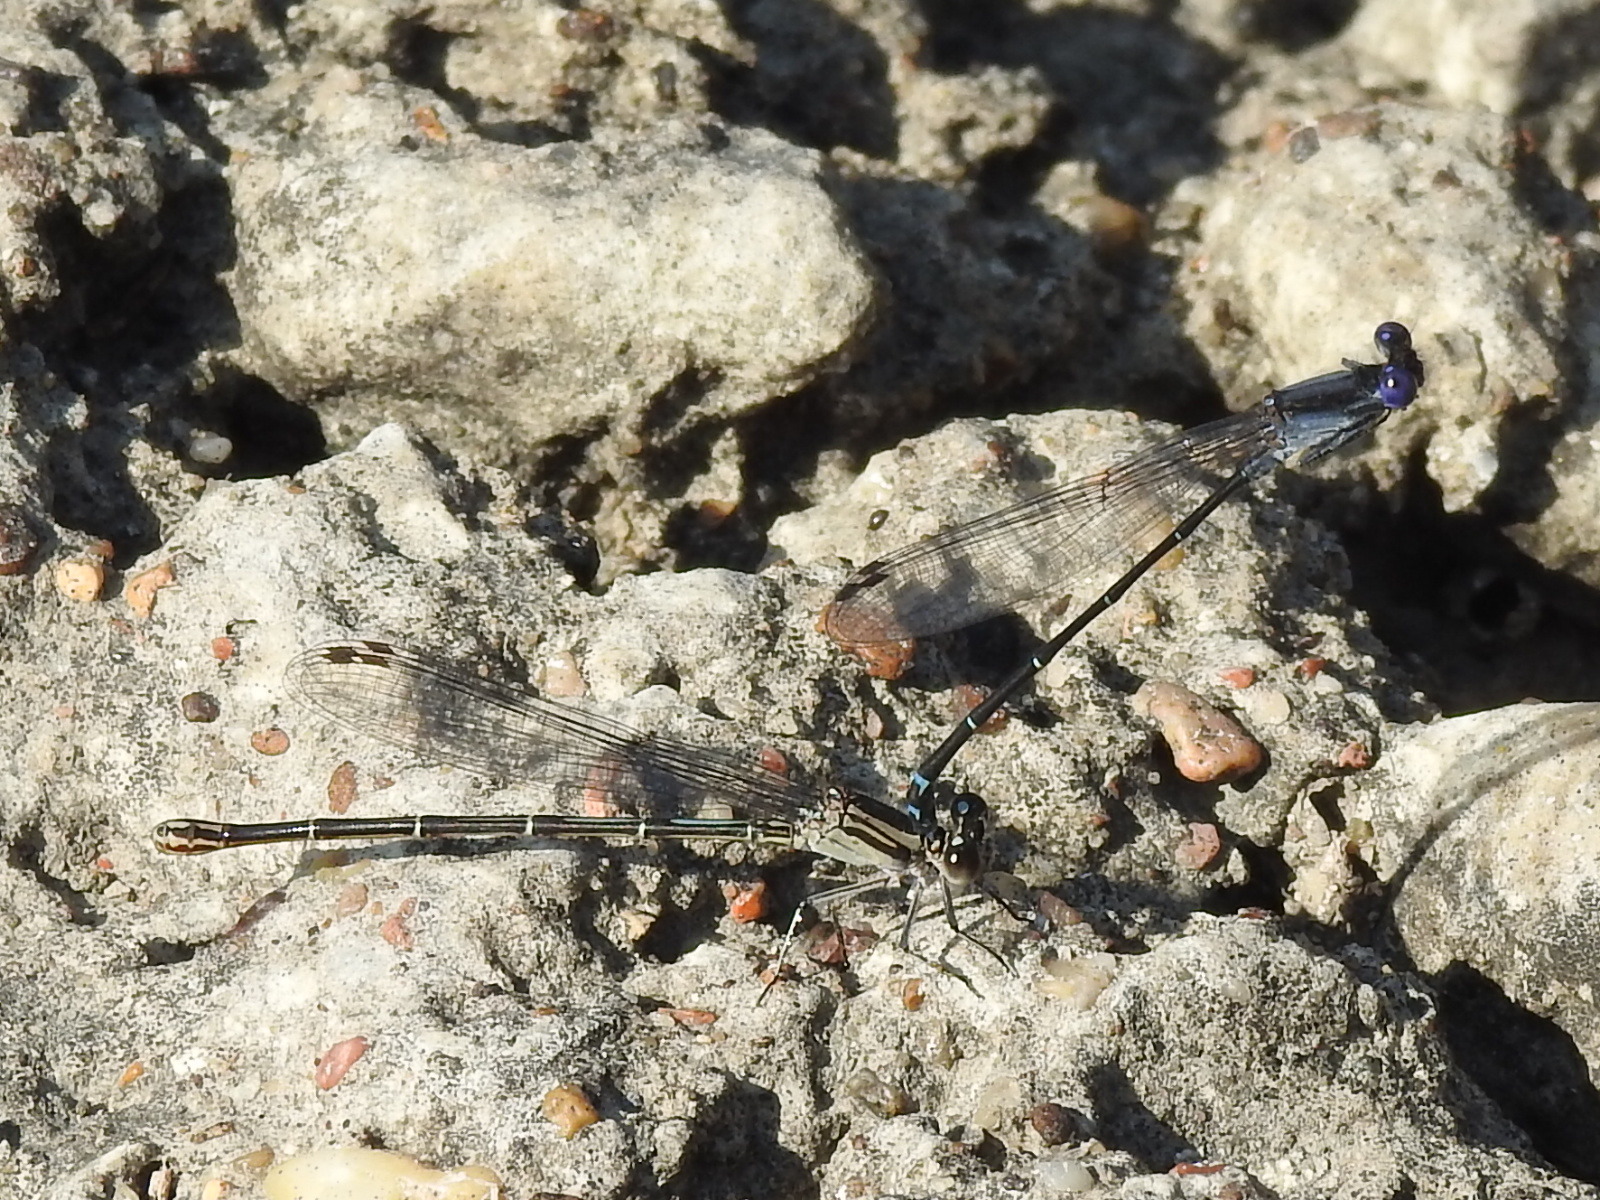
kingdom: Animalia
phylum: Arthropoda
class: Insecta
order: Odonata
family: Coenagrionidae
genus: Argia
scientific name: Argia translata
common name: Dusky dancer
